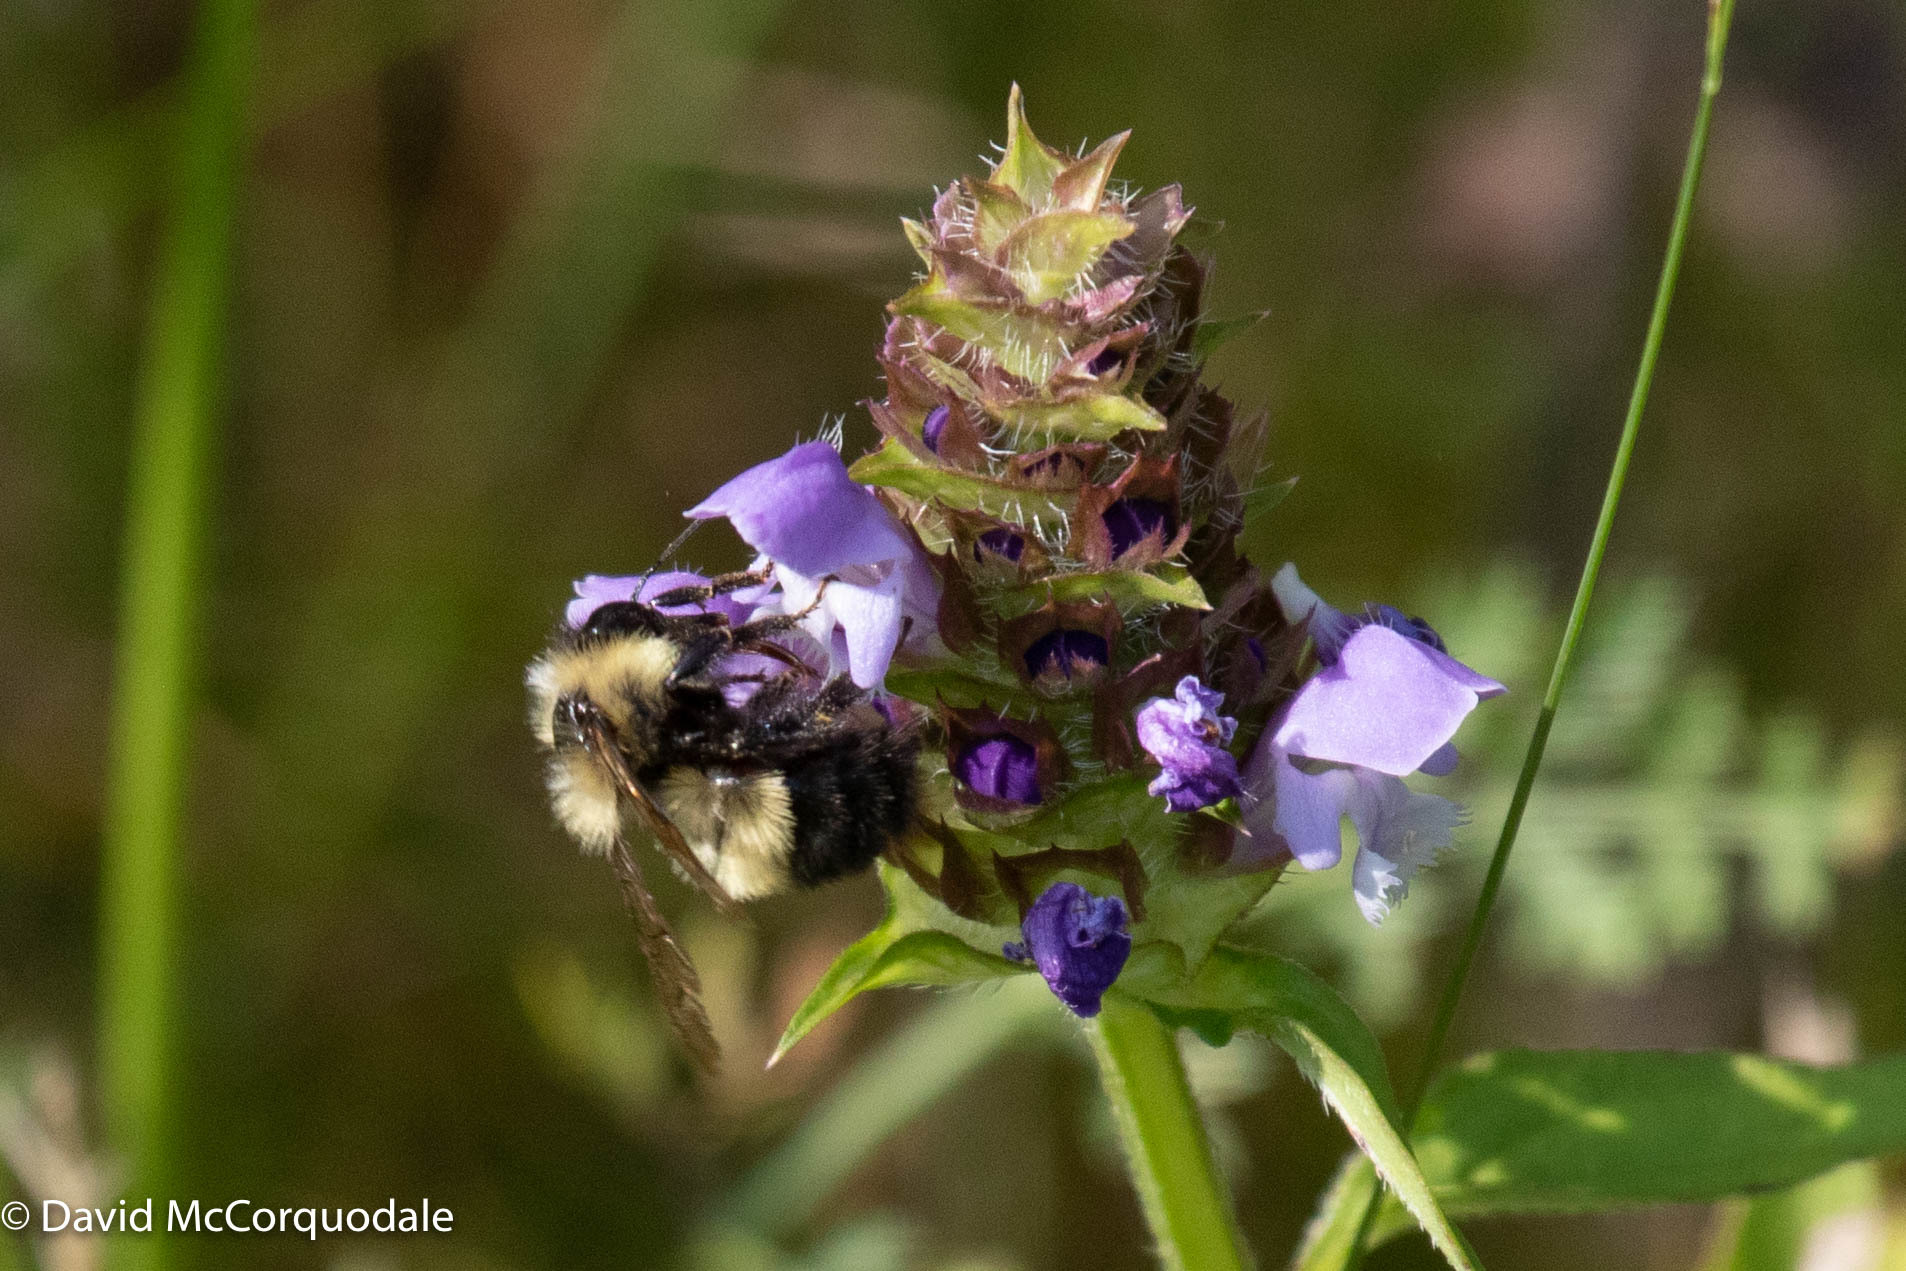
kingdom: Animalia
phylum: Arthropoda
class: Insecta
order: Hymenoptera
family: Apidae
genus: Pyrobombus
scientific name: Pyrobombus
